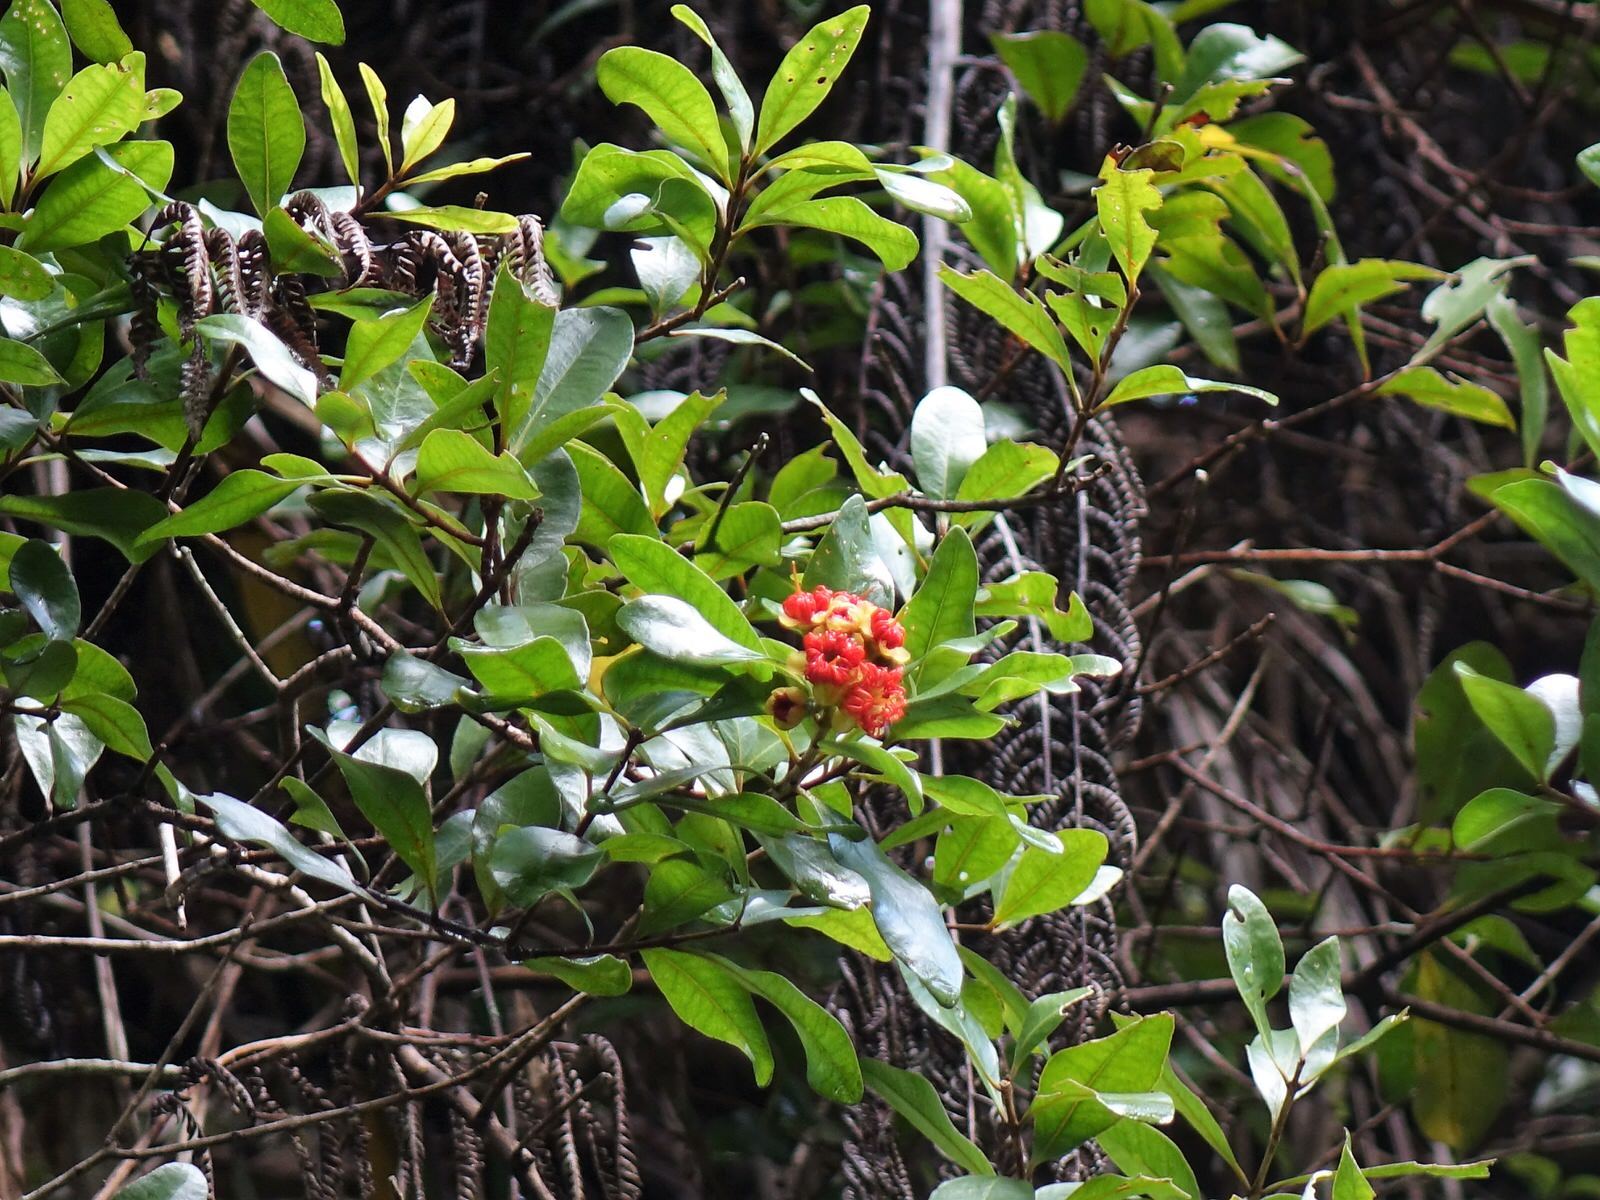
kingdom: Plantae
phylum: Tracheophyta
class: Magnoliopsida
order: Myrtales
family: Myrtaceae
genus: Metrosideros
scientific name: Metrosideros fulgens
